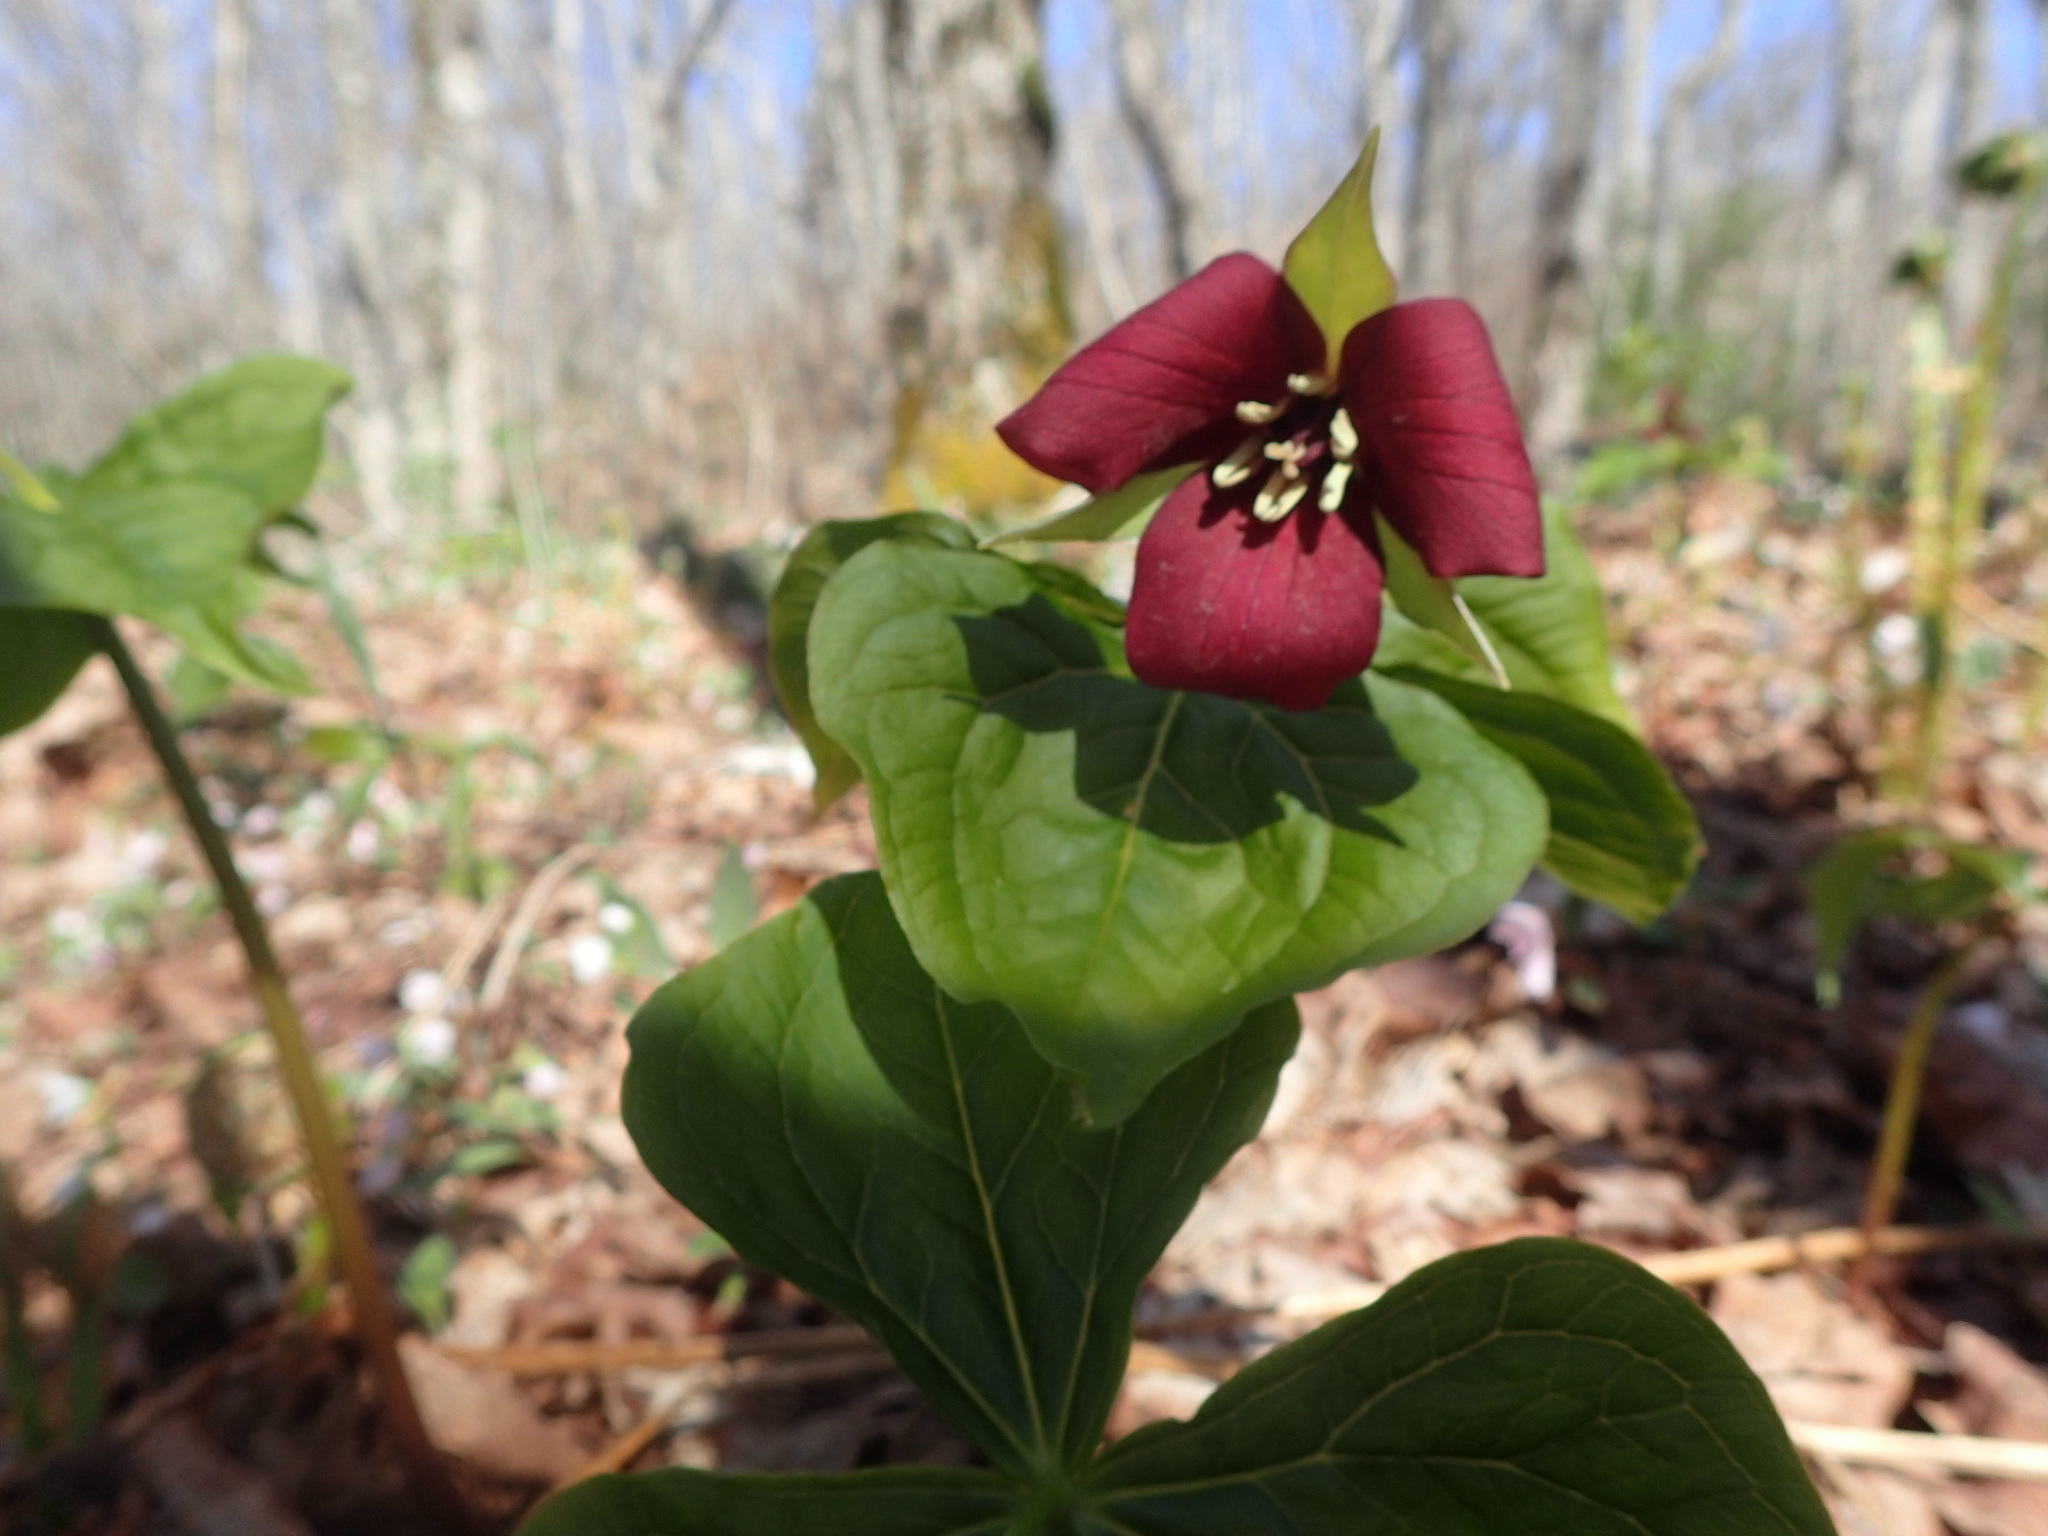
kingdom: Plantae
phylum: Tracheophyta
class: Liliopsida
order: Liliales
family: Melanthiaceae
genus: Trillium
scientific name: Trillium erectum
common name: Purple trillium
